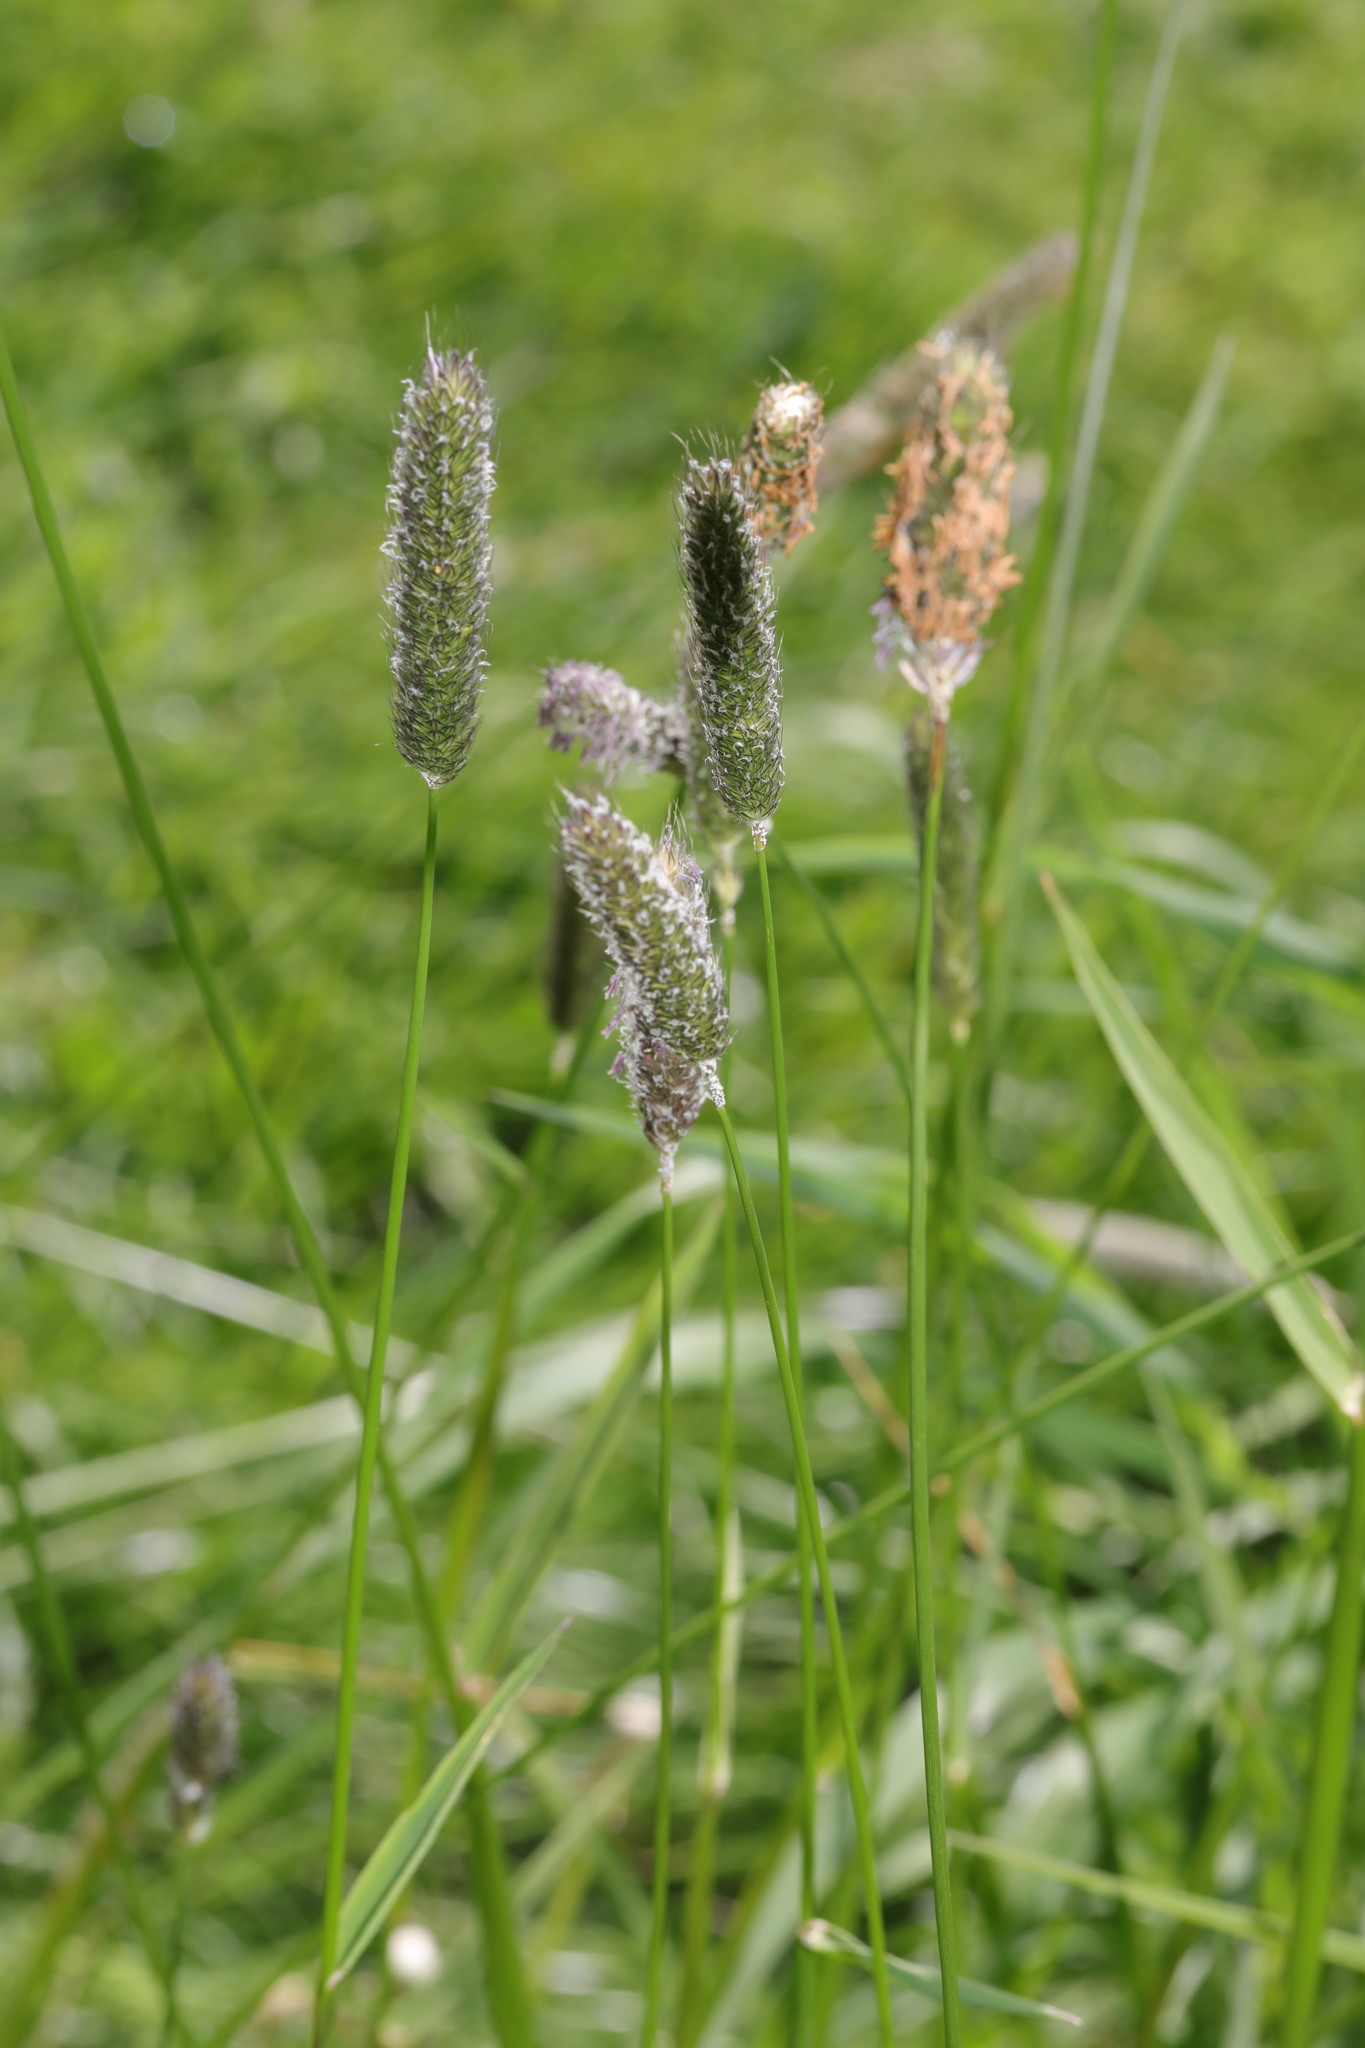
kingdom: Plantae
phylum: Tracheophyta
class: Liliopsida
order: Poales
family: Poaceae
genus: Alopecurus
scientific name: Alopecurus pratensis
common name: Meadow foxtail
